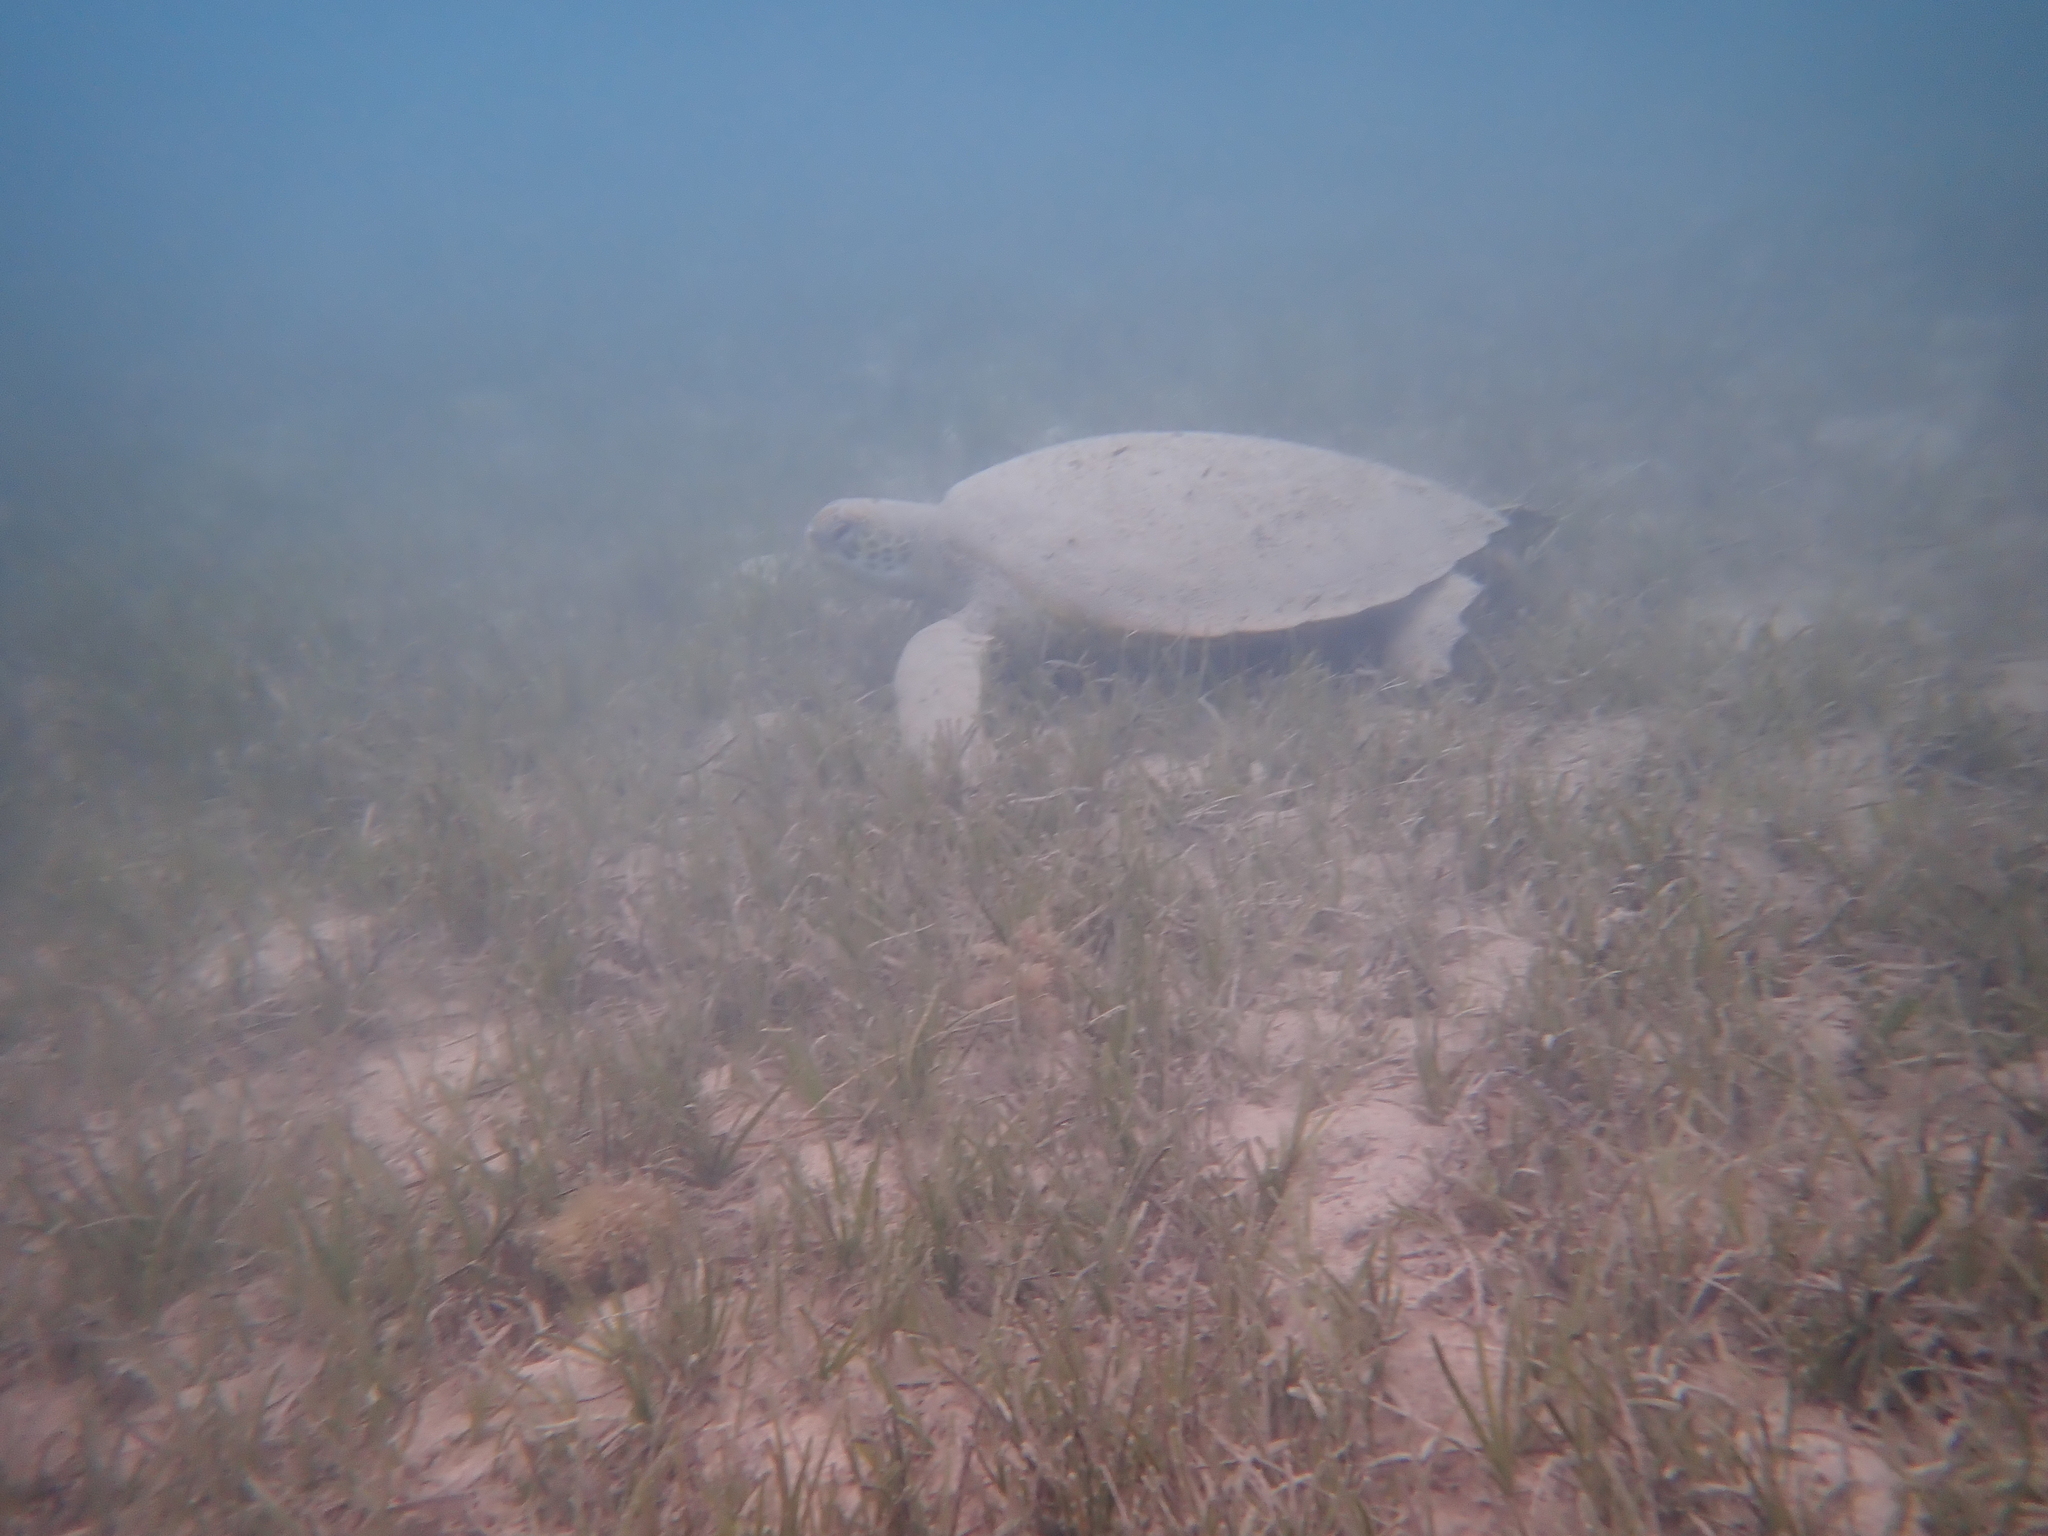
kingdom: Animalia
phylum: Chordata
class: Testudines
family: Cheloniidae
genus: Chelonia
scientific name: Chelonia mydas
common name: Green turtle
